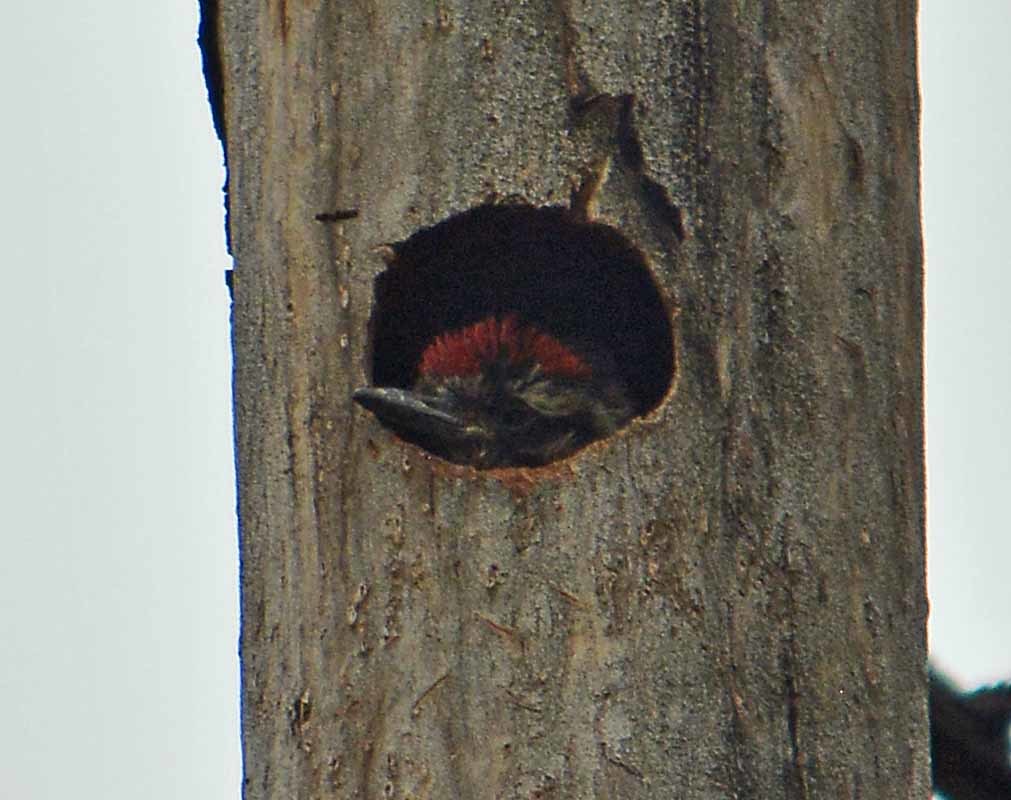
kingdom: Animalia
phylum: Chordata
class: Aves
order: Piciformes
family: Picidae
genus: Dryobates
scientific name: Dryobates scalaris
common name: Ladder-backed woodpecker
